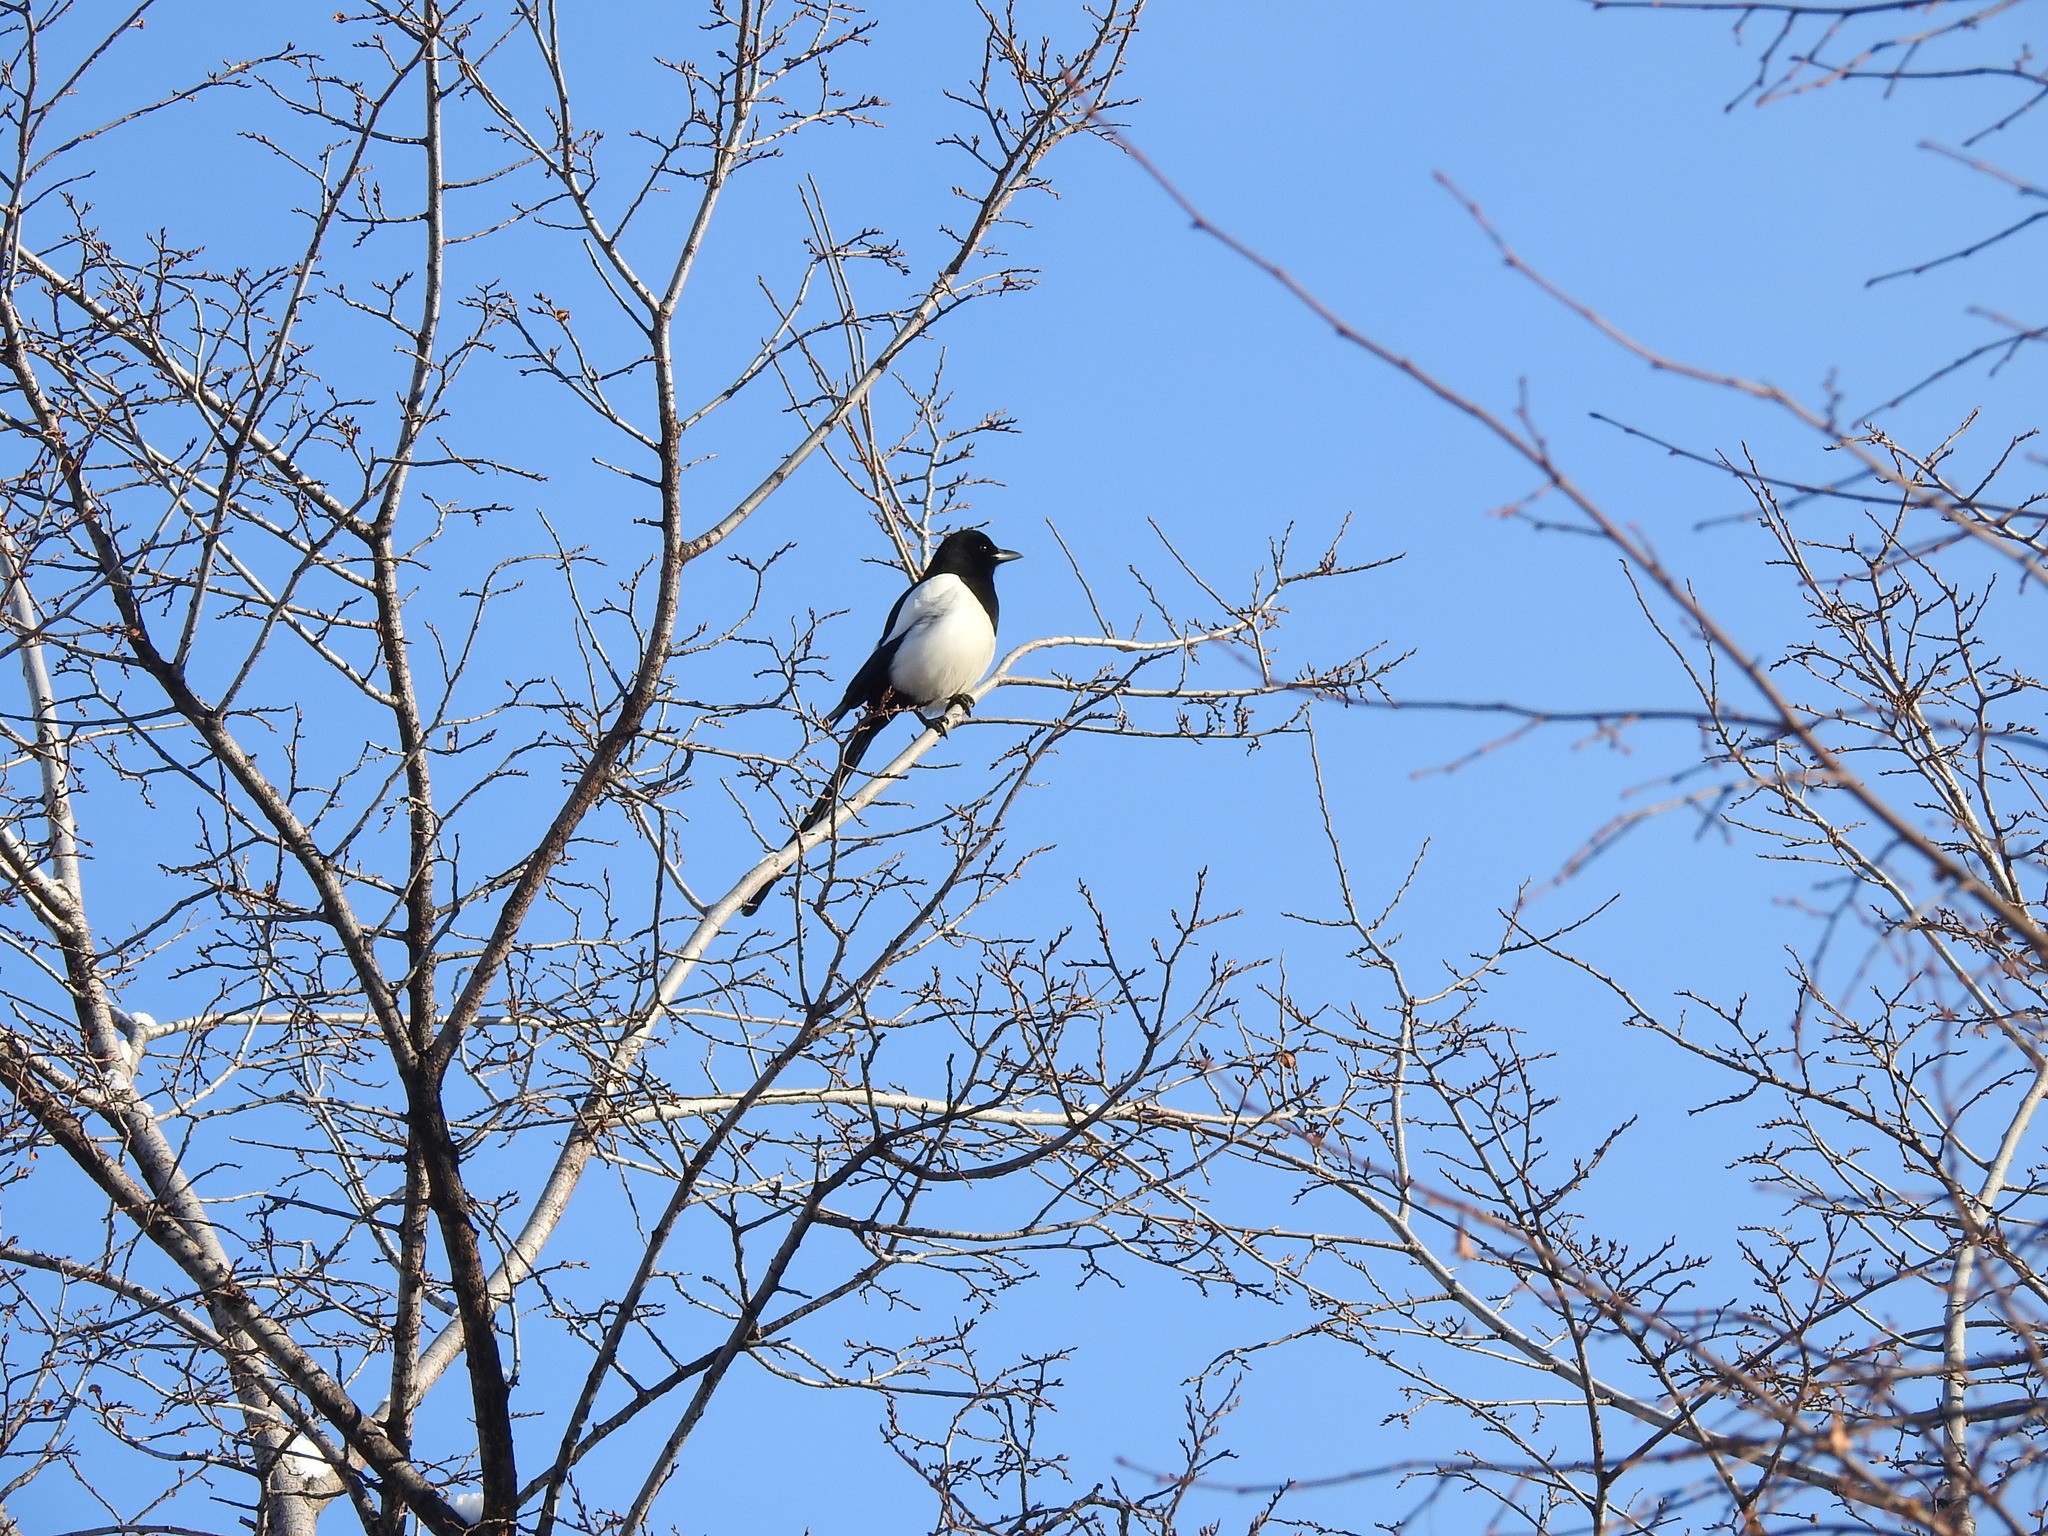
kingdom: Animalia
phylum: Chordata
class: Aves
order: Passeriformes
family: Corvidae
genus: Pica
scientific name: Pica pica
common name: Eurasian magpie
